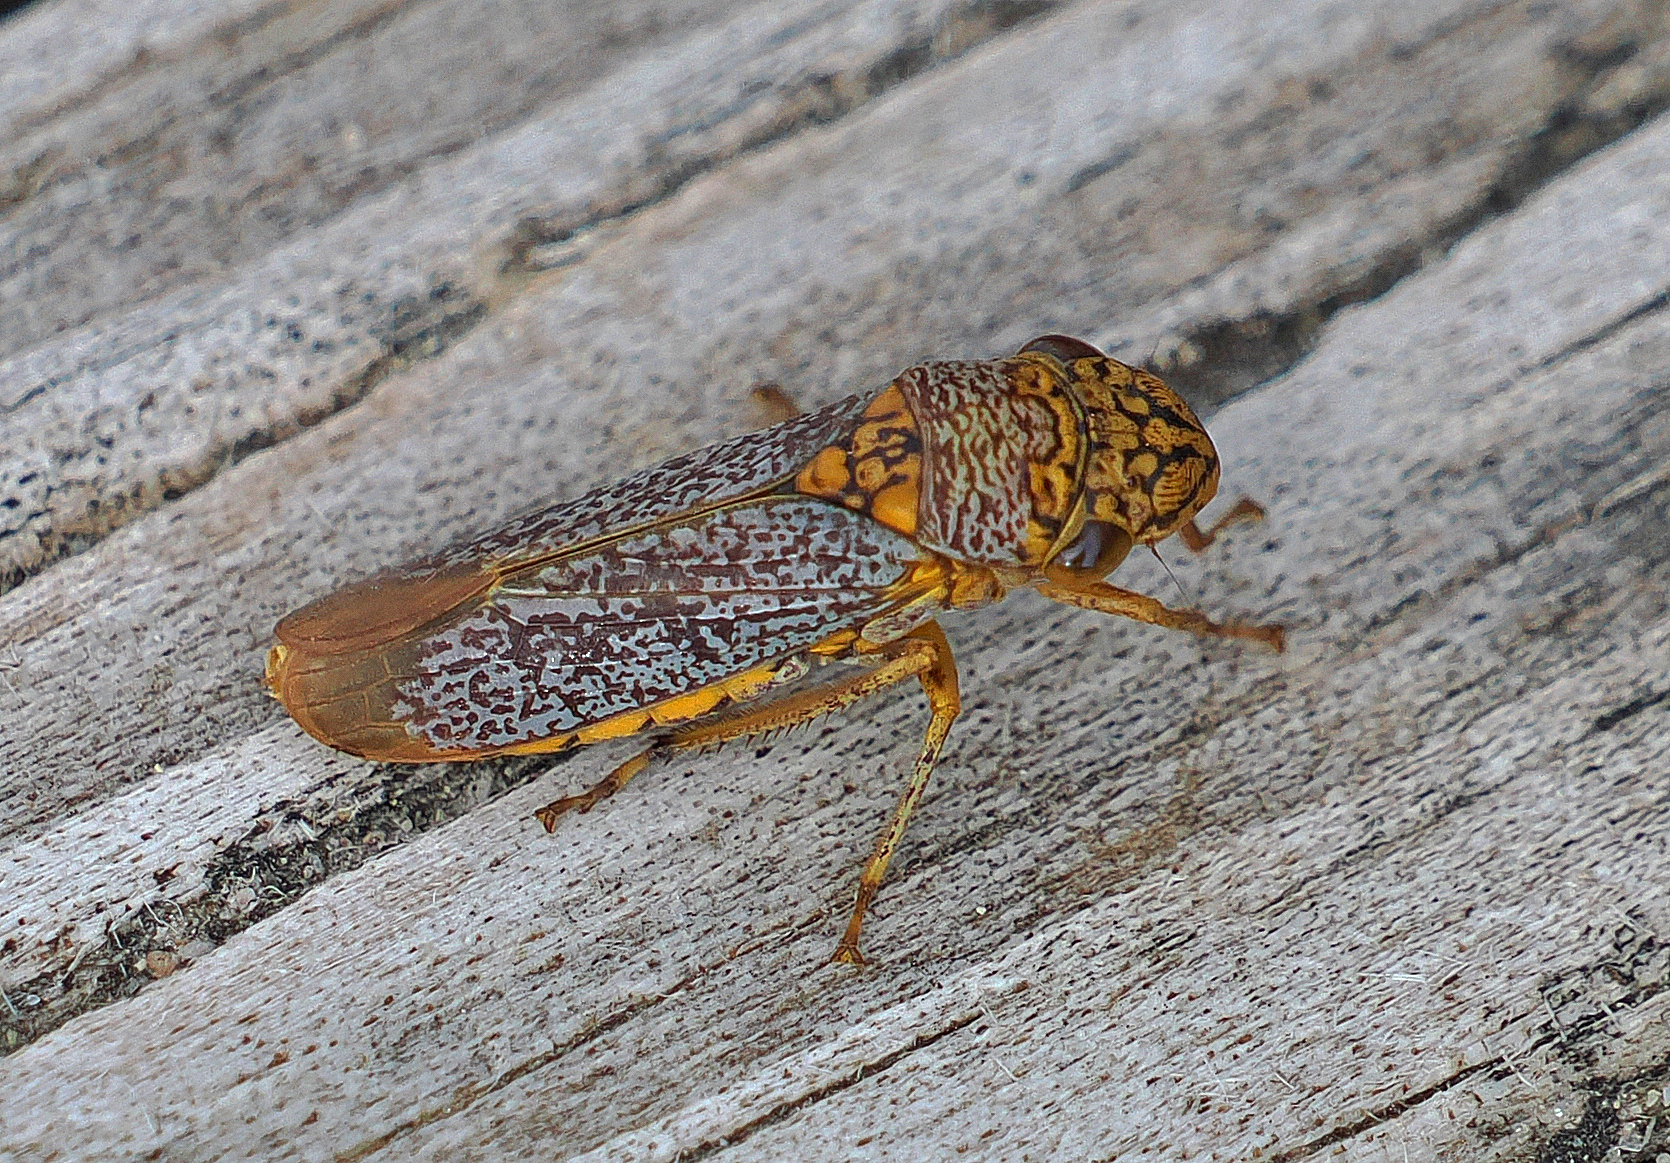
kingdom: Animalia
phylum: Arthropoda
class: Insecta
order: Hemiptera
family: Cicadellidae
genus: Oncometopia
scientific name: Oncometopia orbona
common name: Broad-headed sharpshooter
